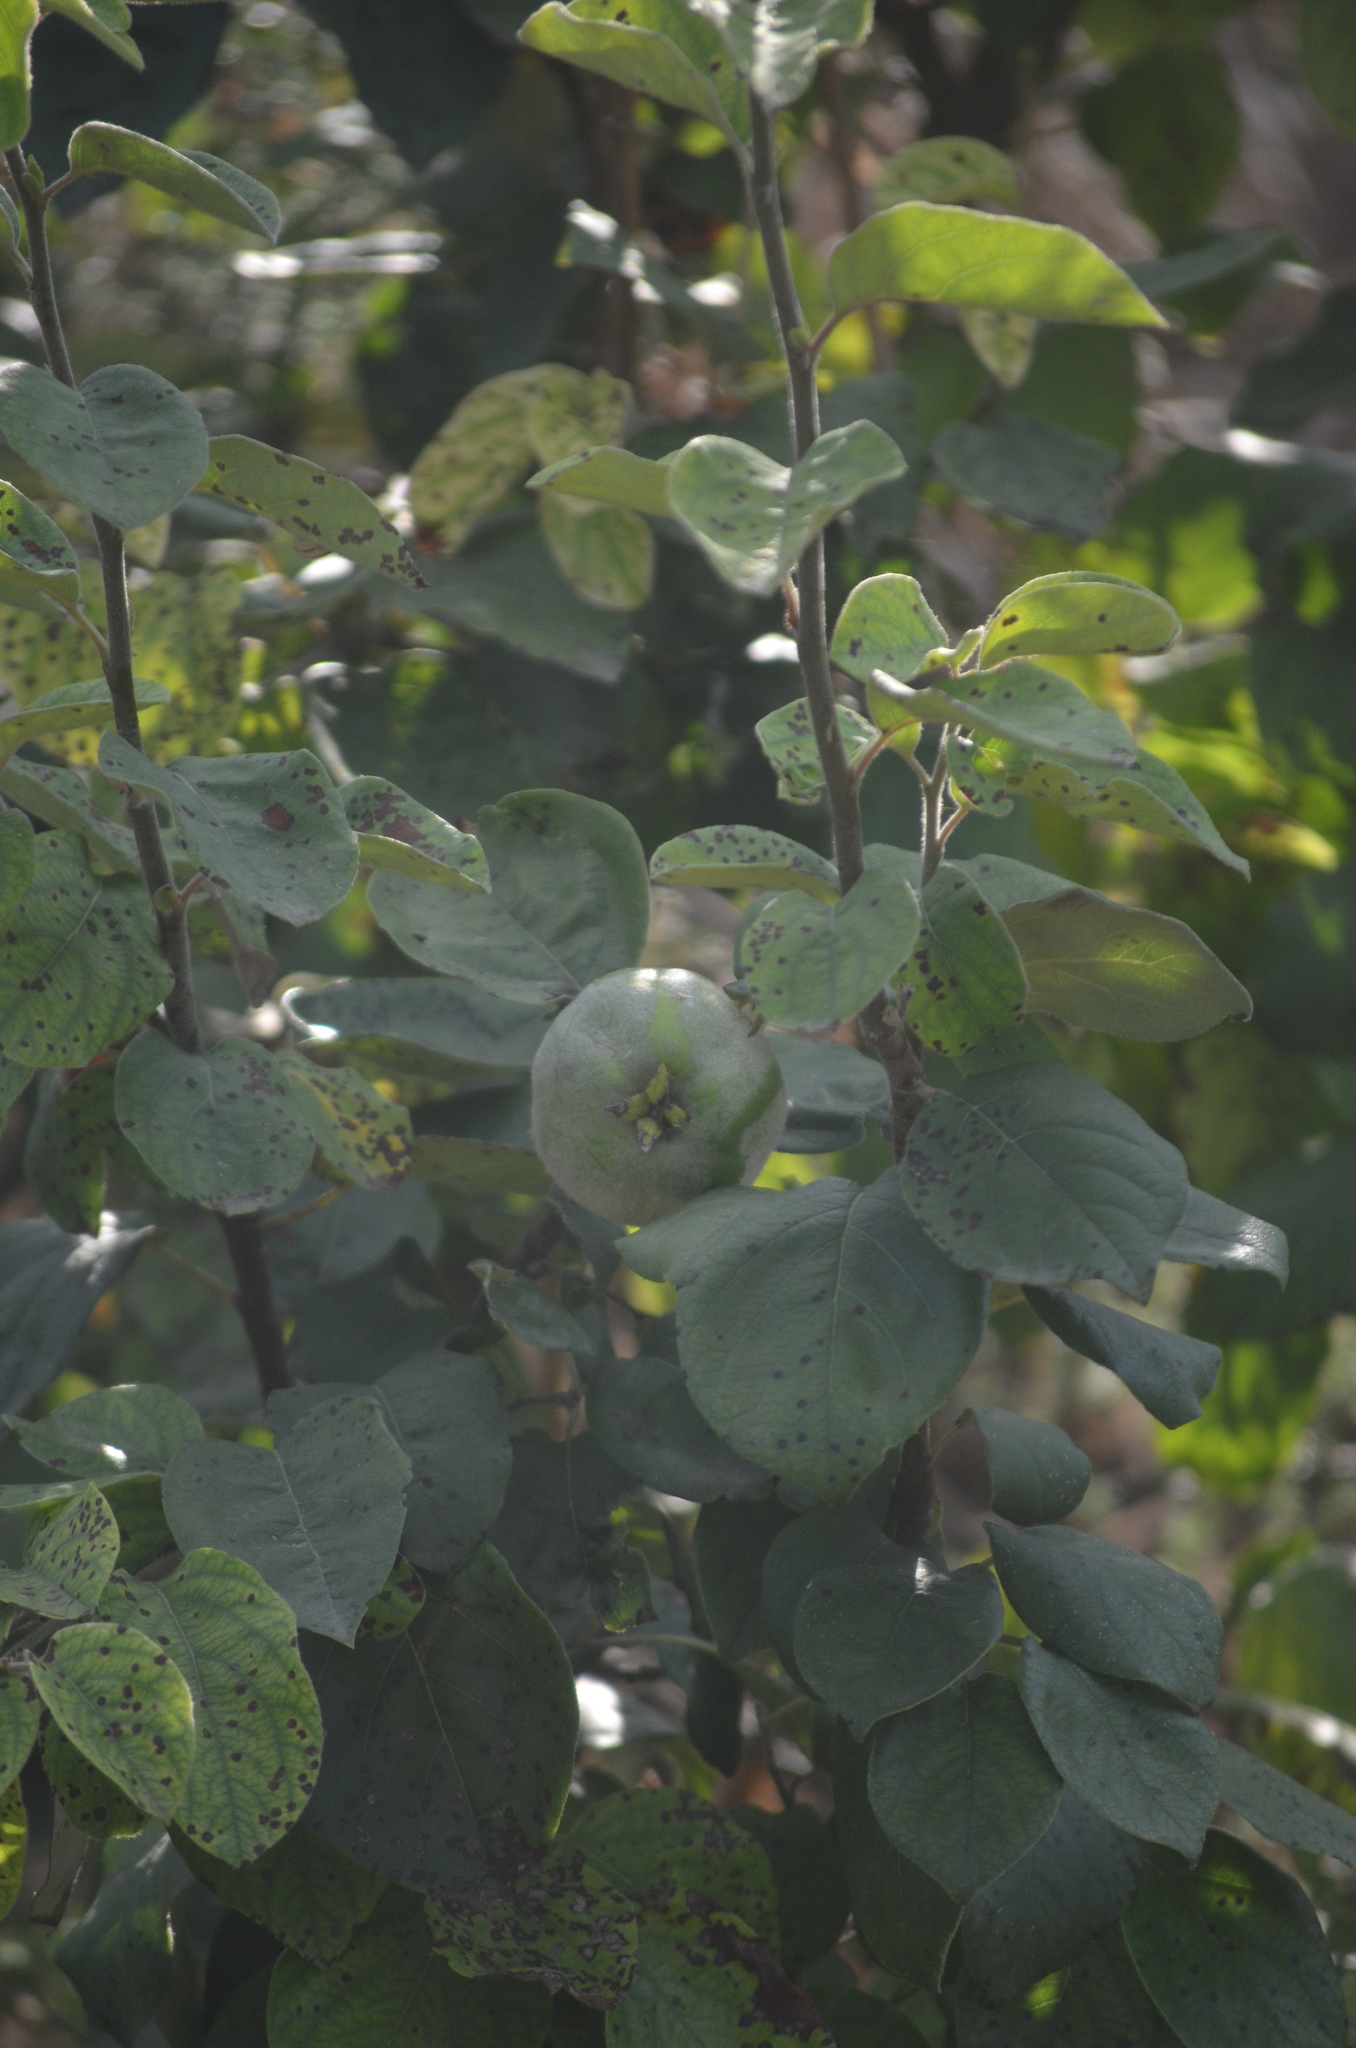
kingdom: Plantae
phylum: Tracheophyta
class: Magnoliopsida
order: Rosales
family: Rosaceae
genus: Cydonia
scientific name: Cydonia oblonga
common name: Quince
